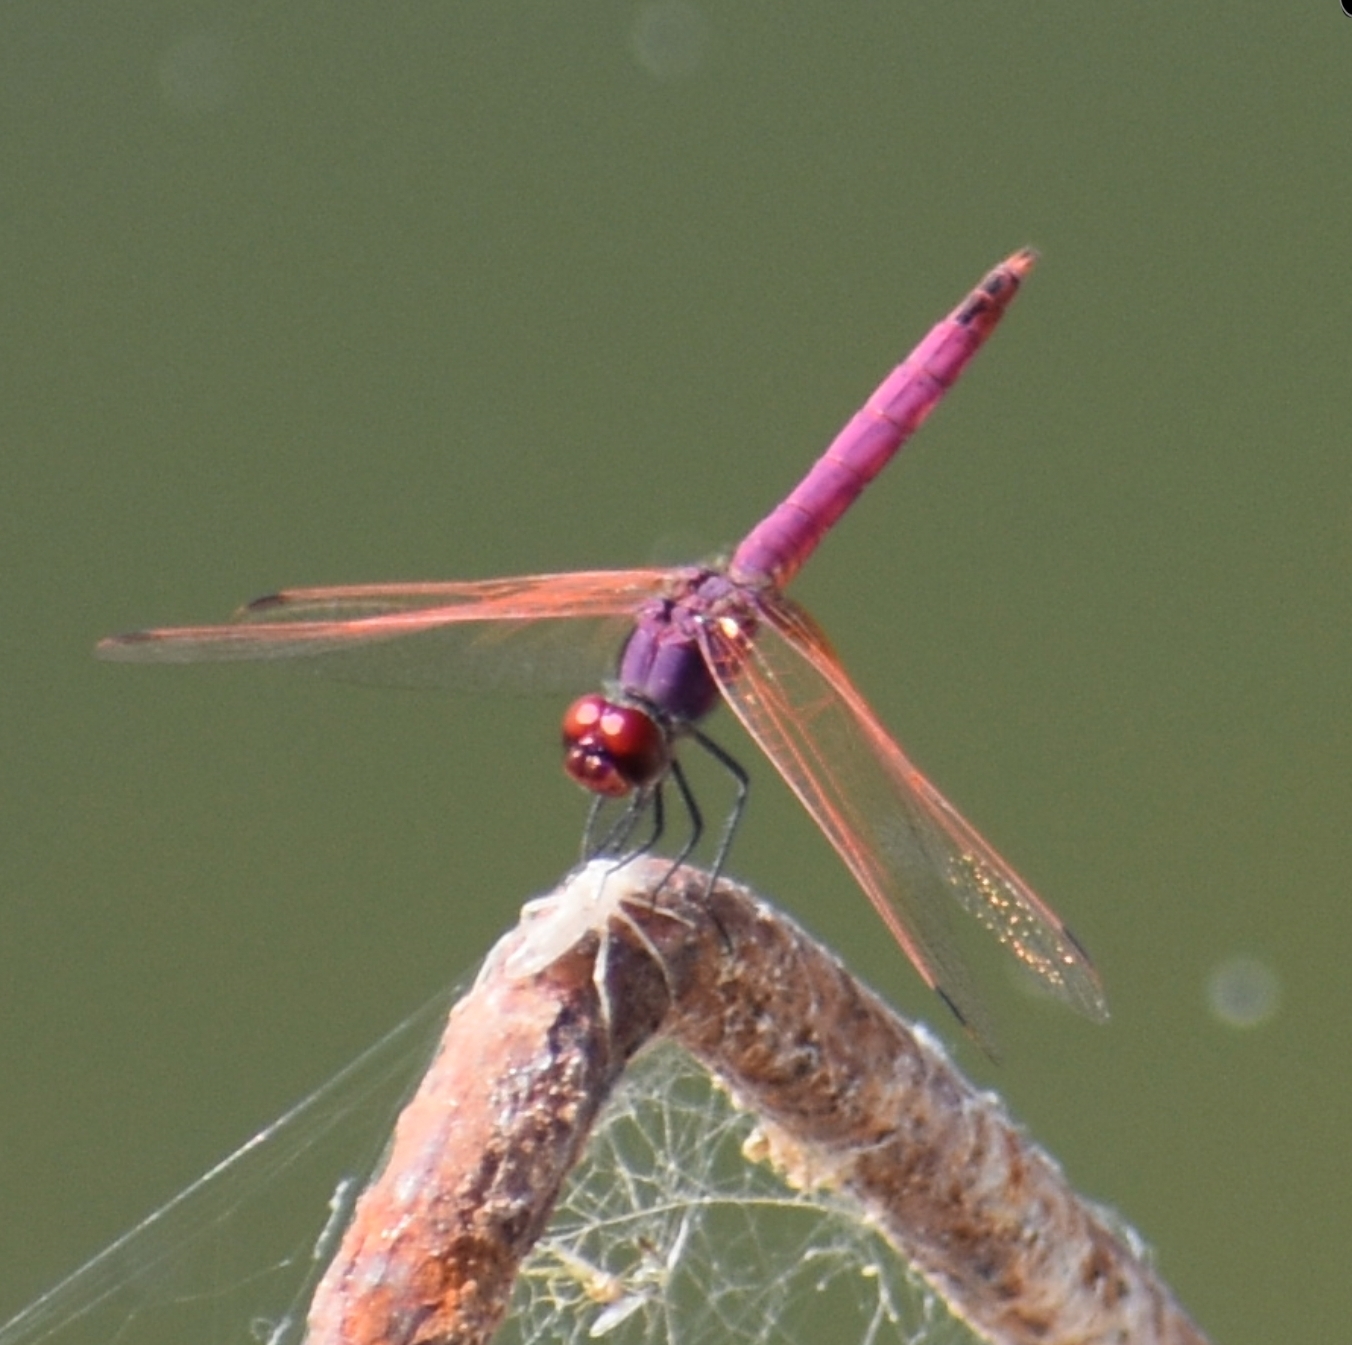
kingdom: Animalia
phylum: Arthropoda
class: Insecta
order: Odonata
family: Libellulidae
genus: Trithemis
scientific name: Trithemis annulata
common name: Violet dropwing
